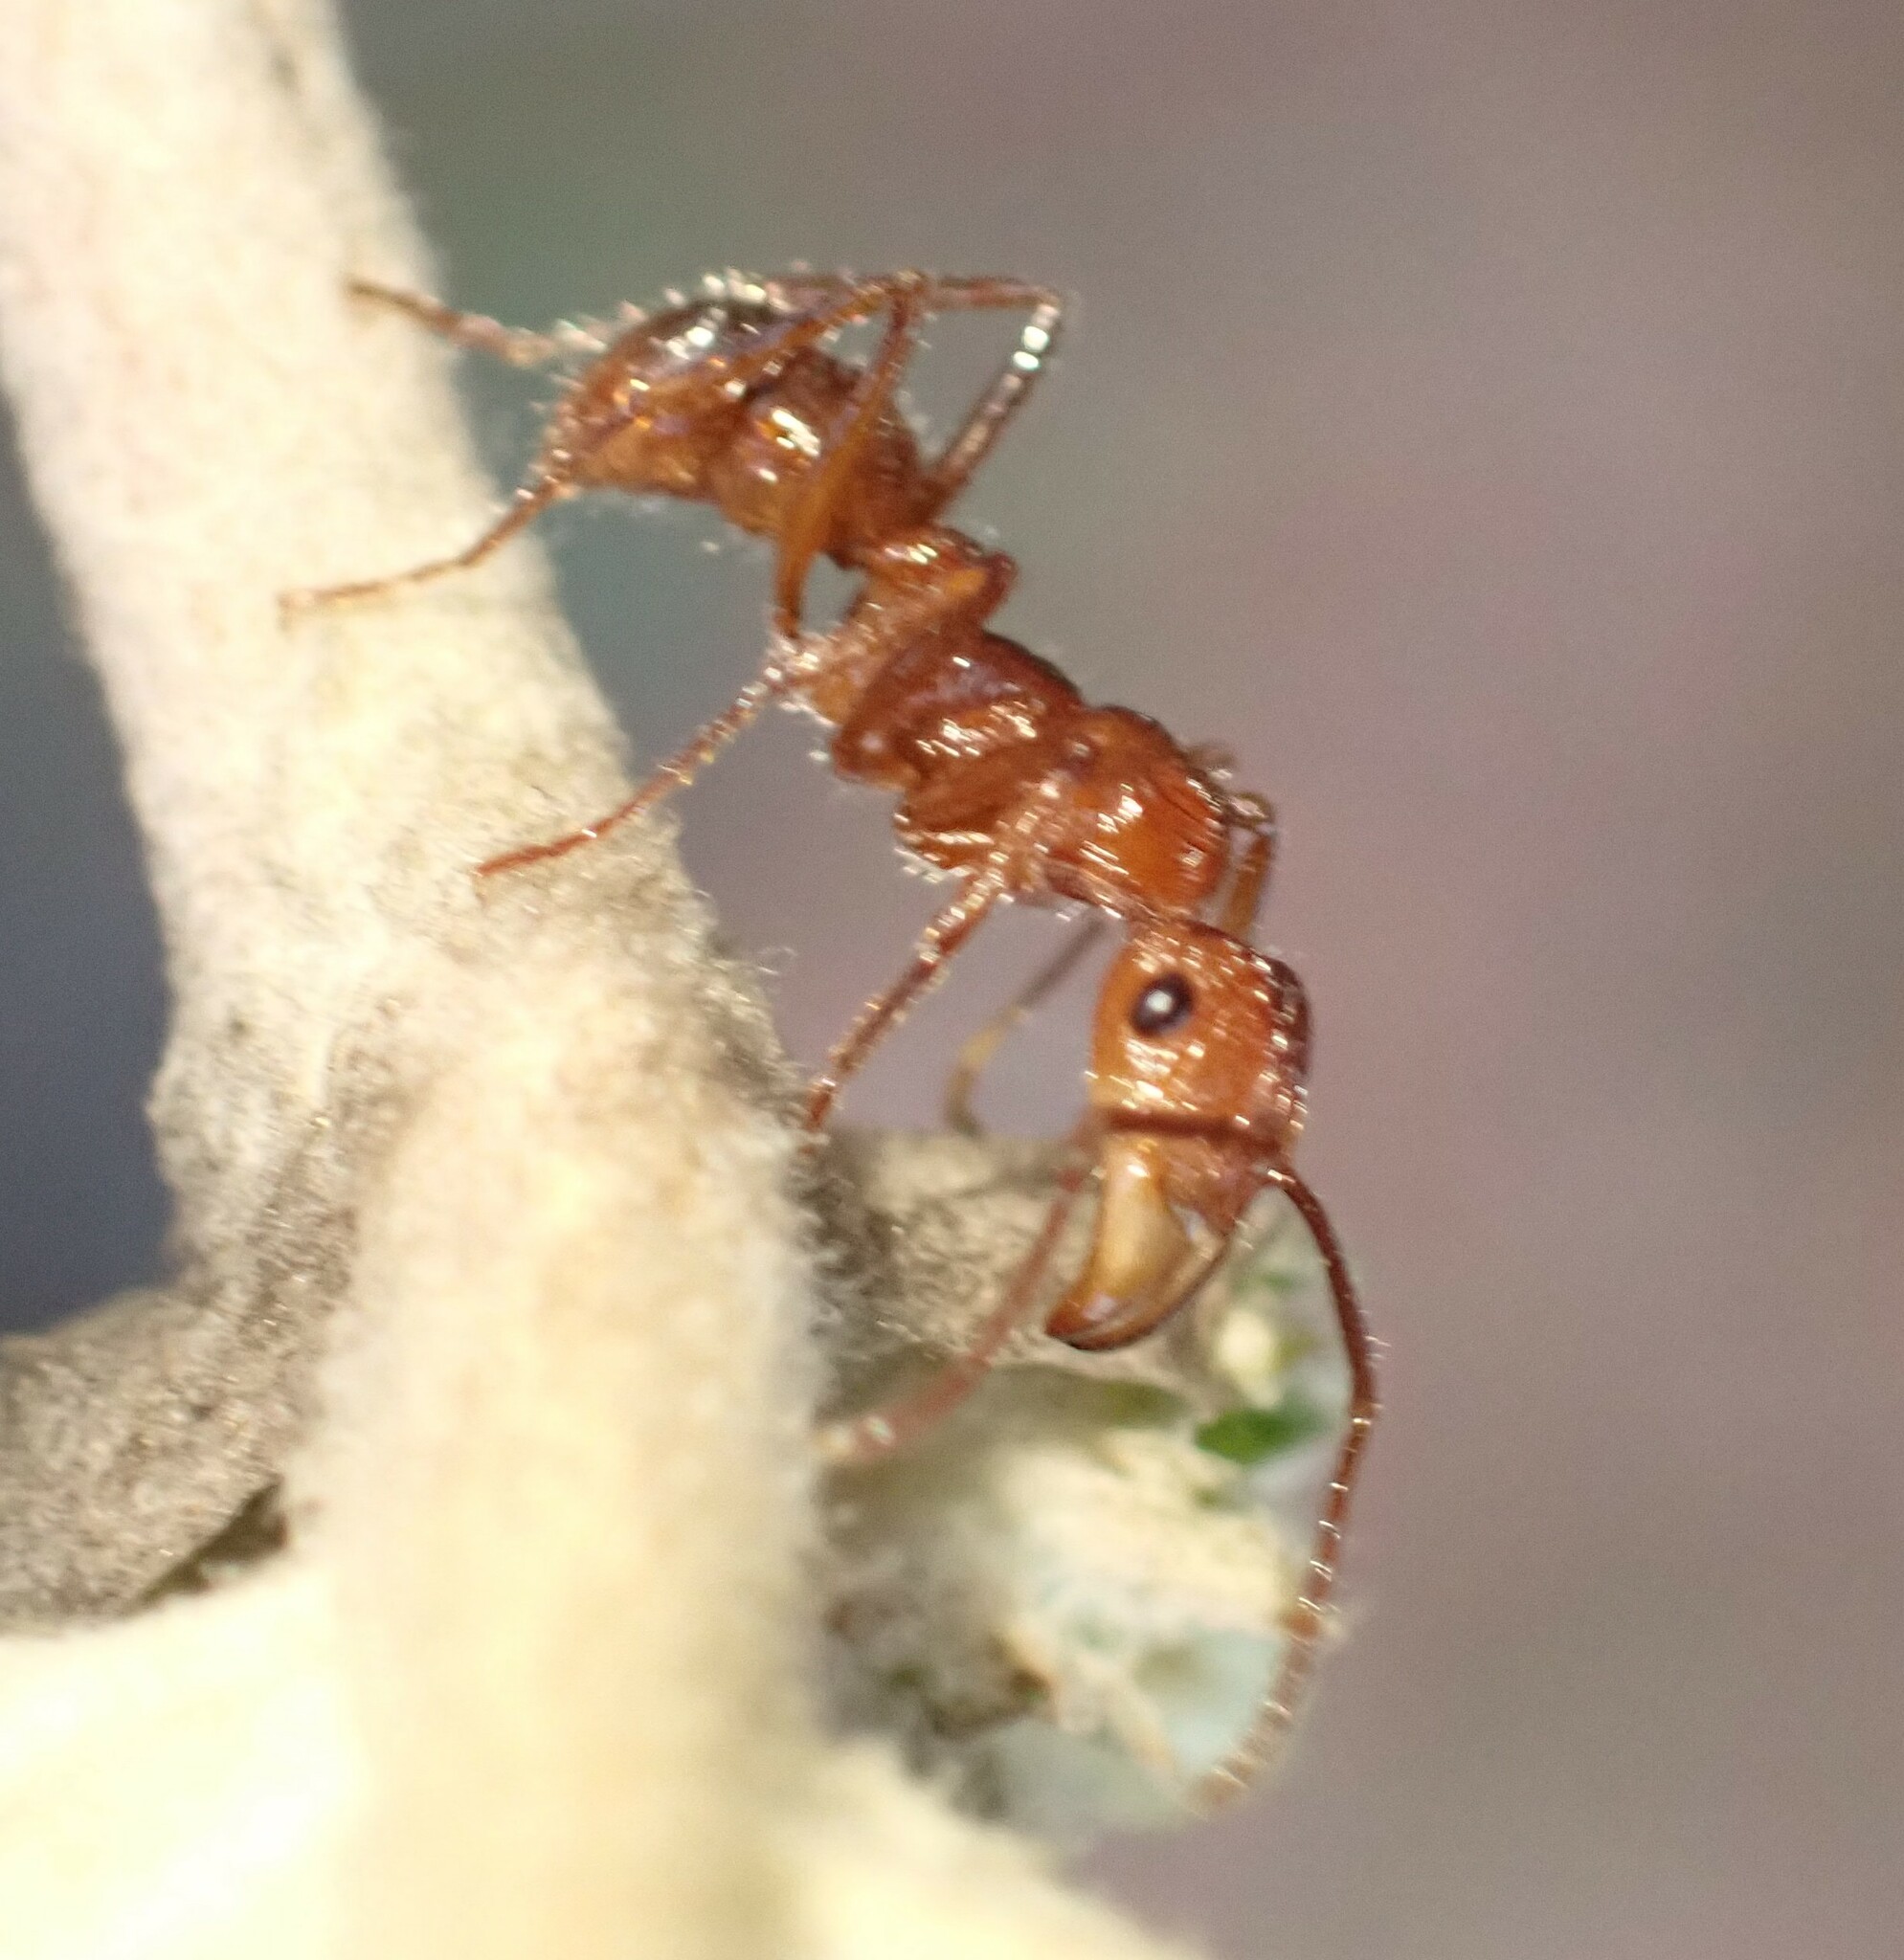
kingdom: Animalia
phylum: Arthropoda
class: Insecta
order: Hymenoptera
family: Formicidae
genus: Ectatomma
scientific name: Ectatomma tuberculatum
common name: Ant
